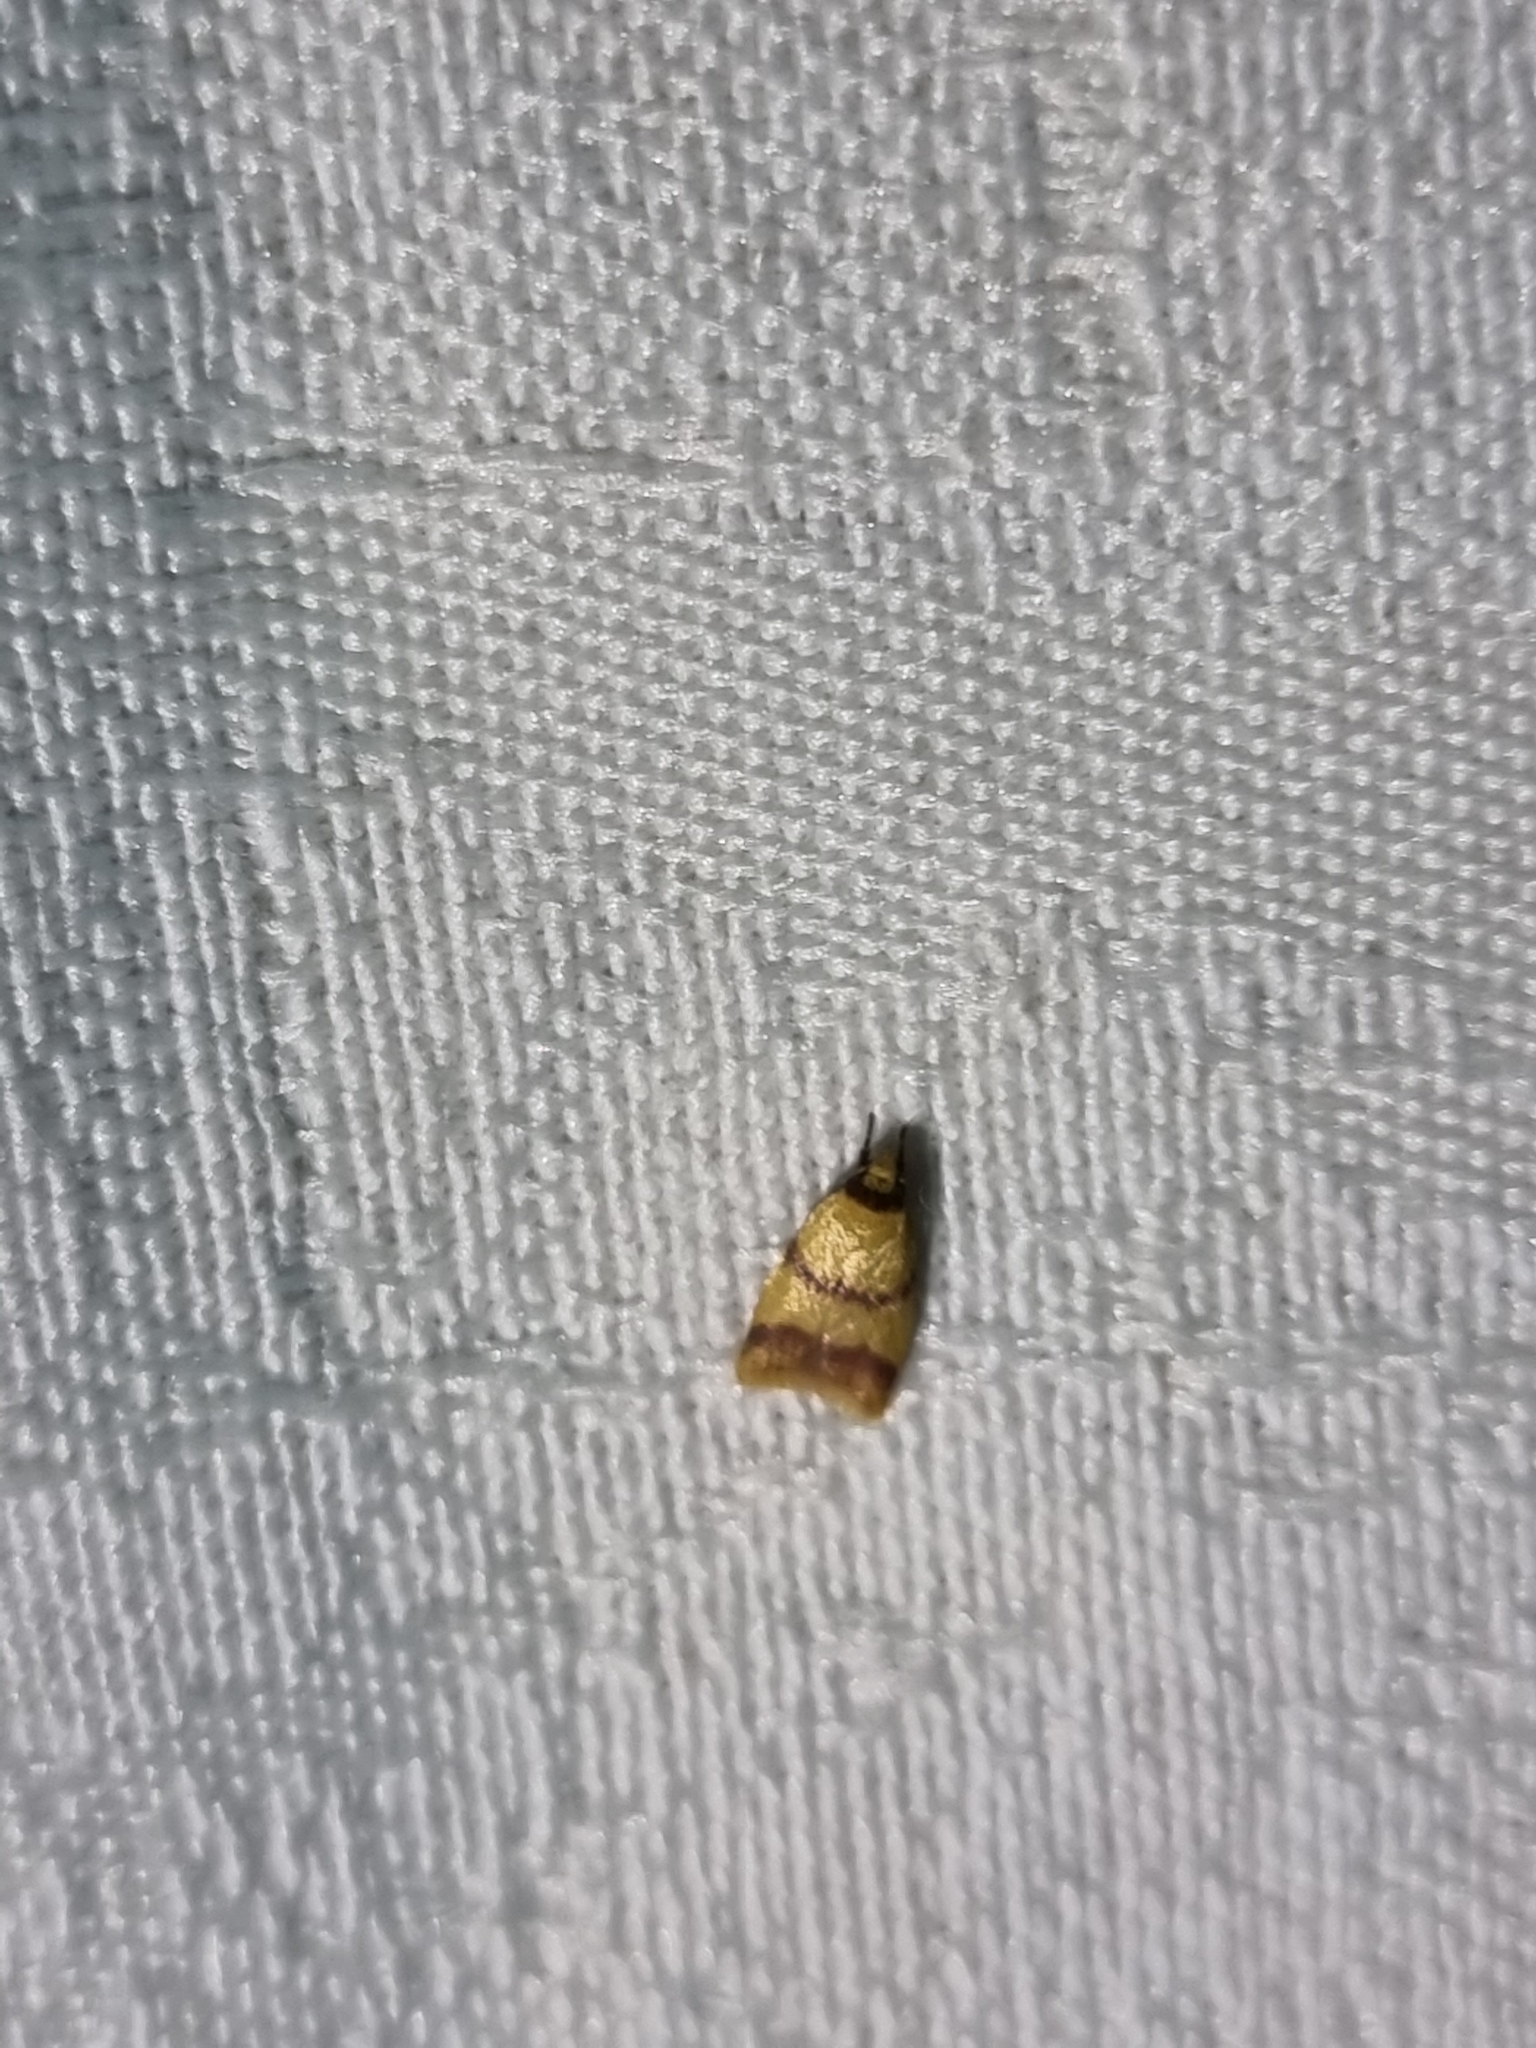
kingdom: Animalia
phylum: Arthropoda
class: Insecta
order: Lepidoptera
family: Oecophoridae
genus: Heteroteucha
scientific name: Heteroteucha translatella
